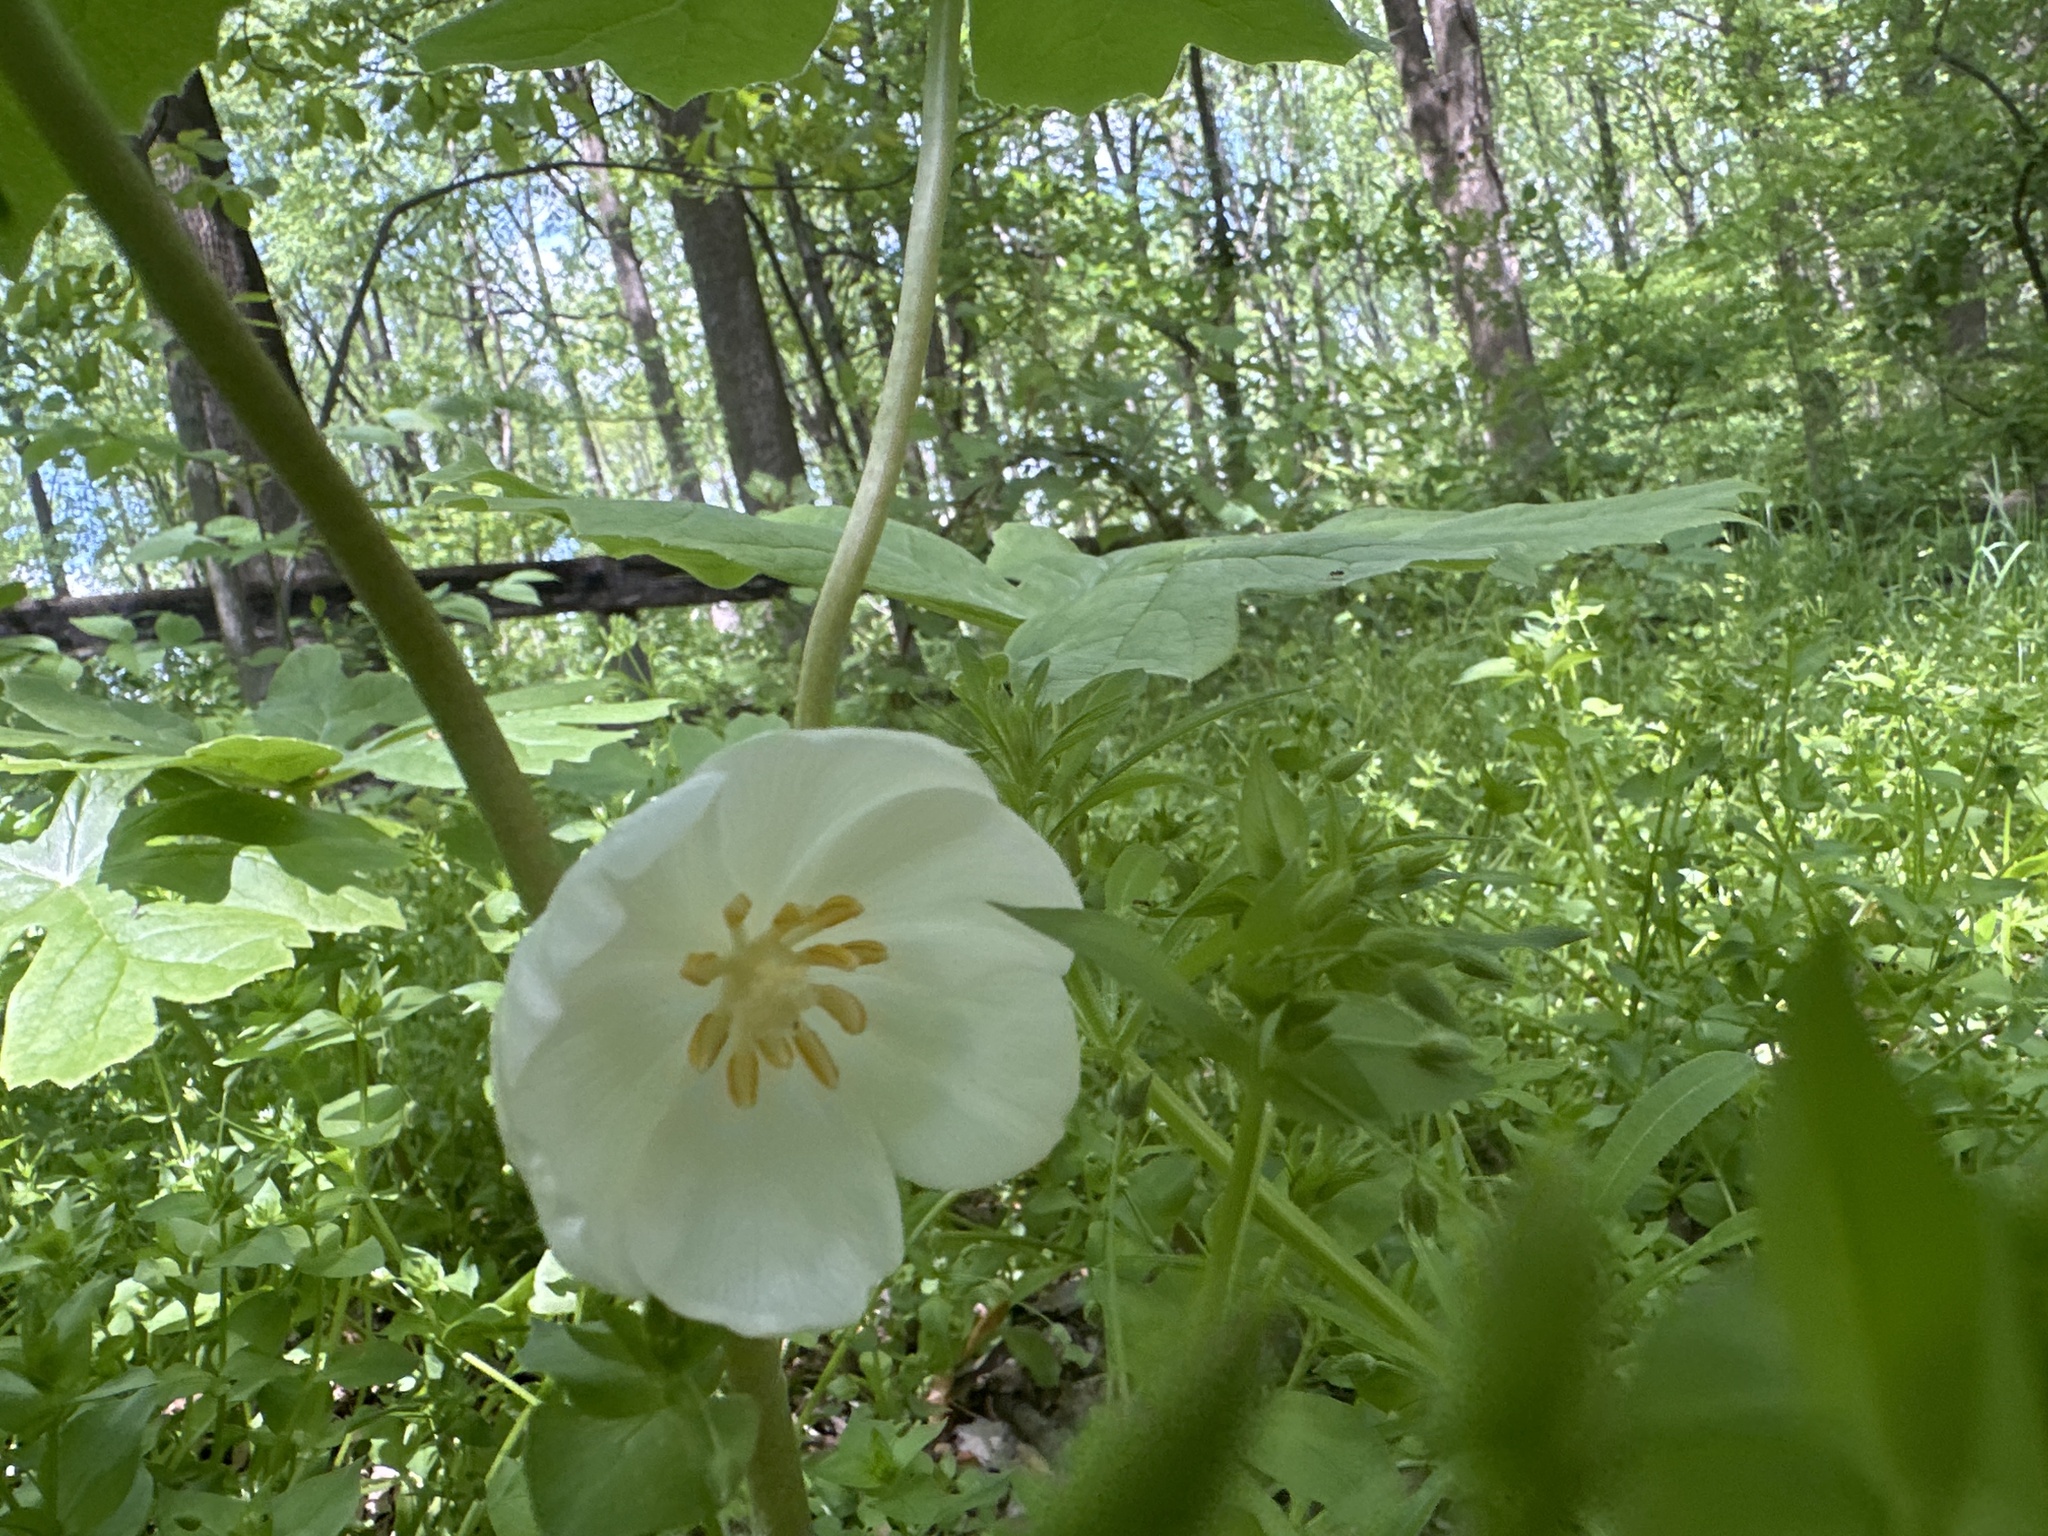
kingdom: Plantae
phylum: Tracheophyta
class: Magnoliopsida
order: Ranunculales
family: Berberidaceae
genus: Podophyllum
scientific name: Podophyllum peltatum
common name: Wild mandrake
